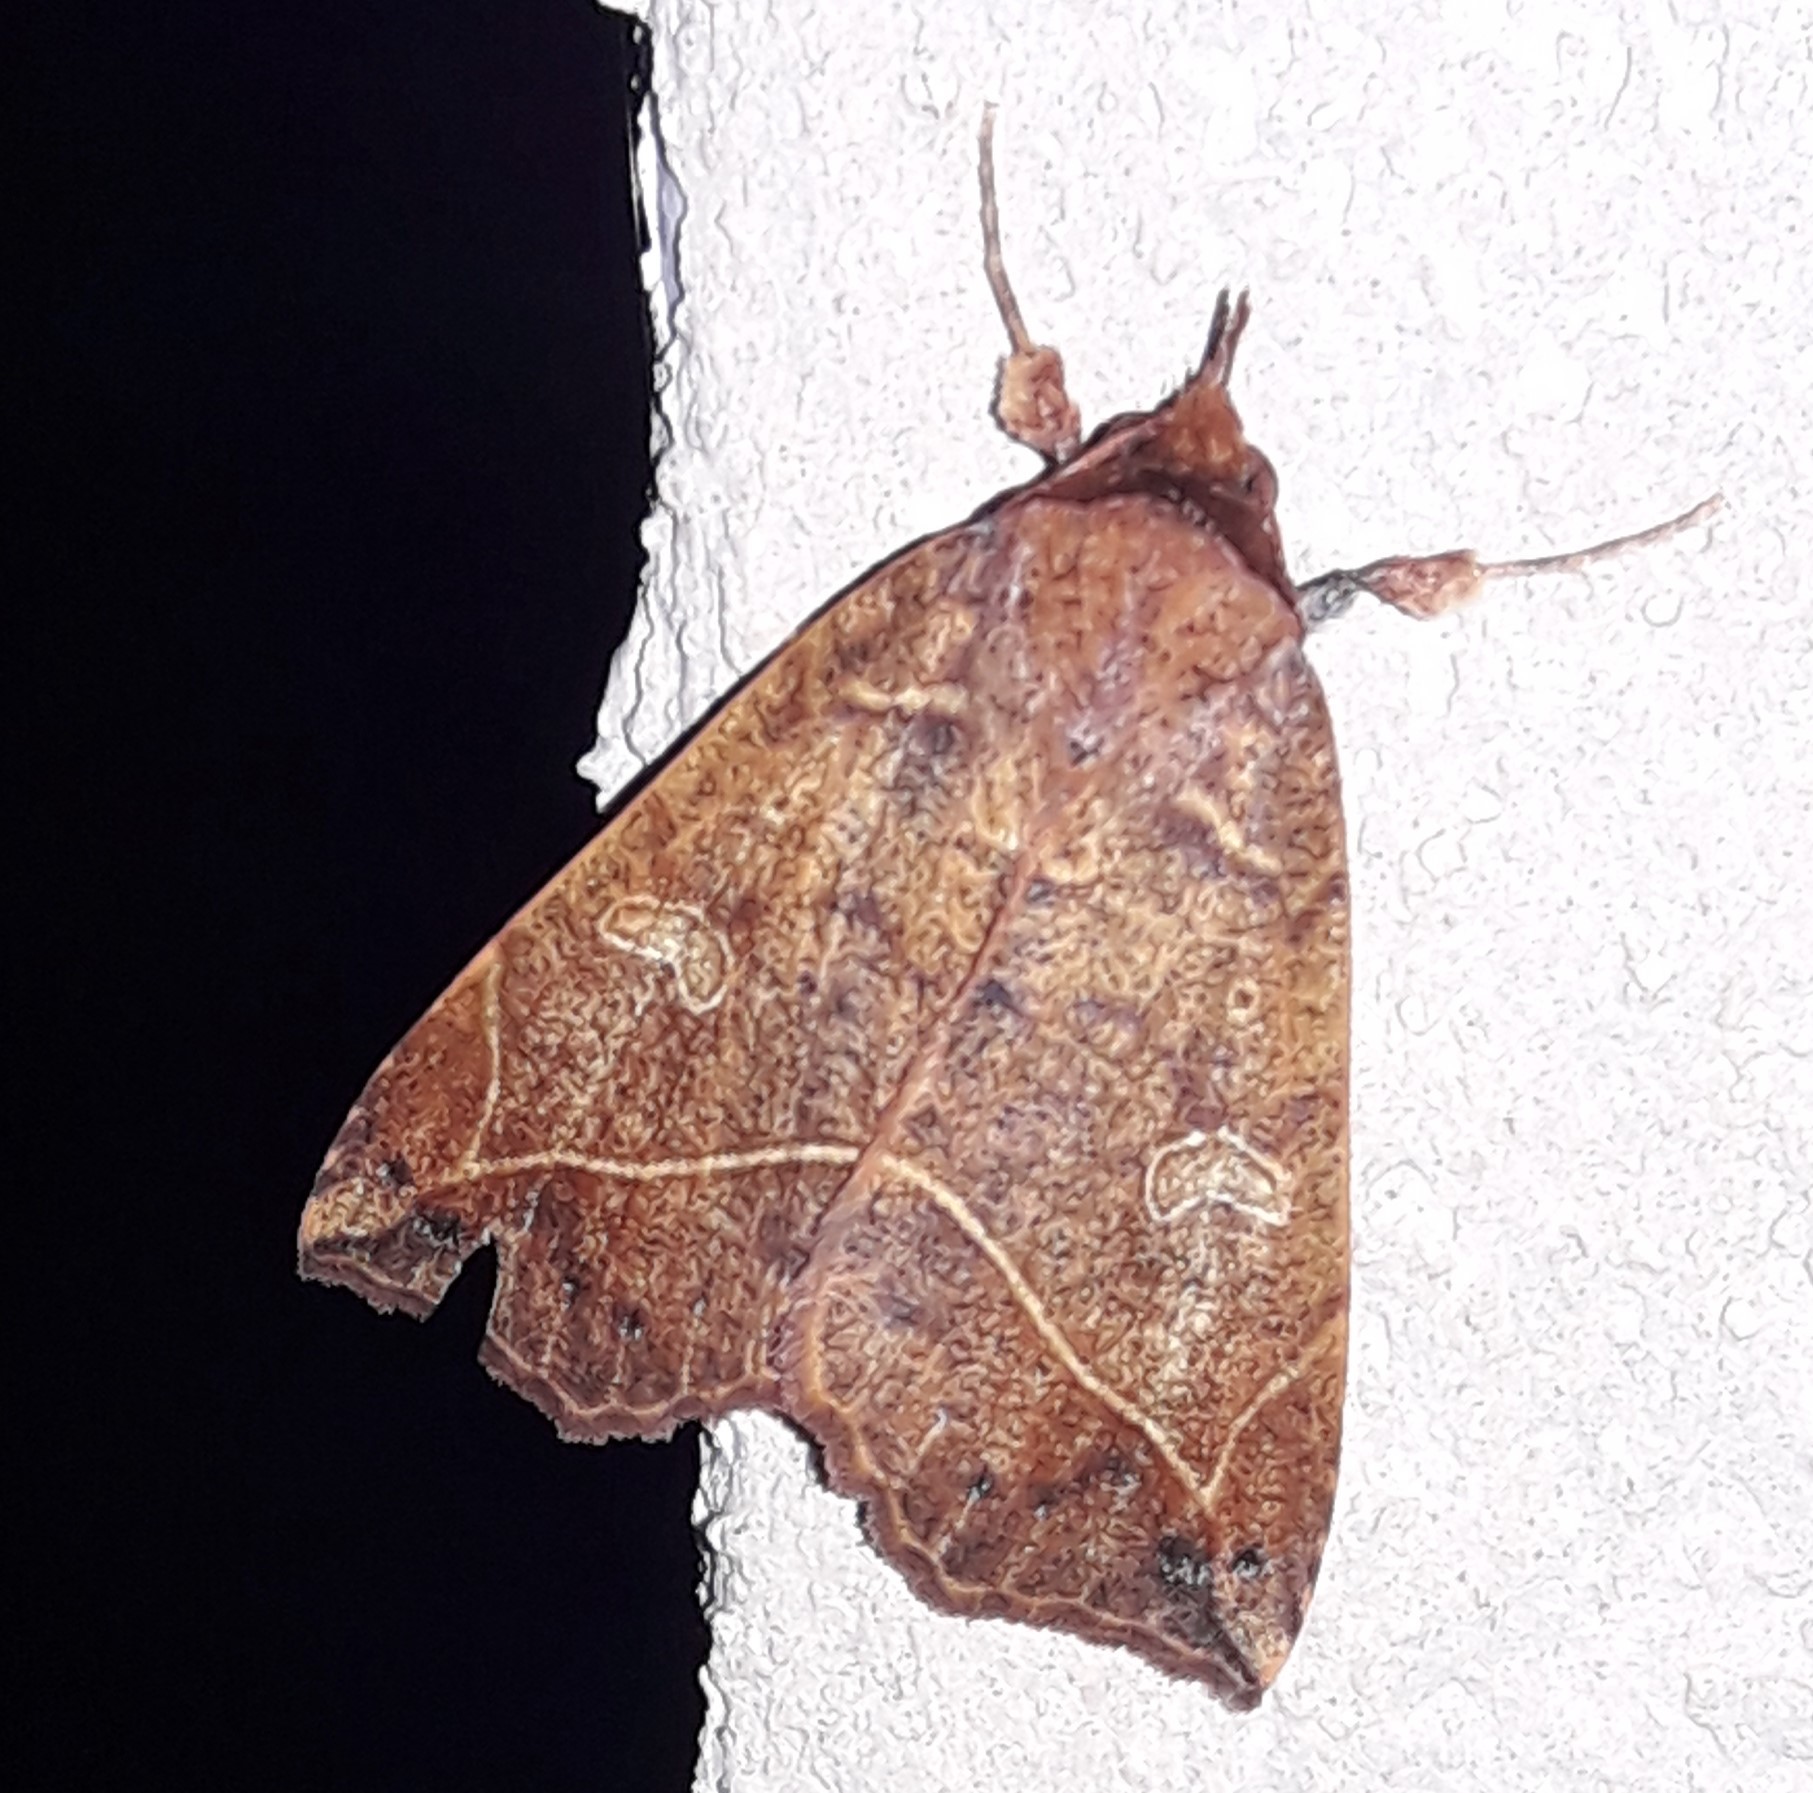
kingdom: Animalia
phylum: Arthropoda
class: Insecta
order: Lepidoptera
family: Erebidae
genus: Goniocarsia
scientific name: Goniocarsia electrica
